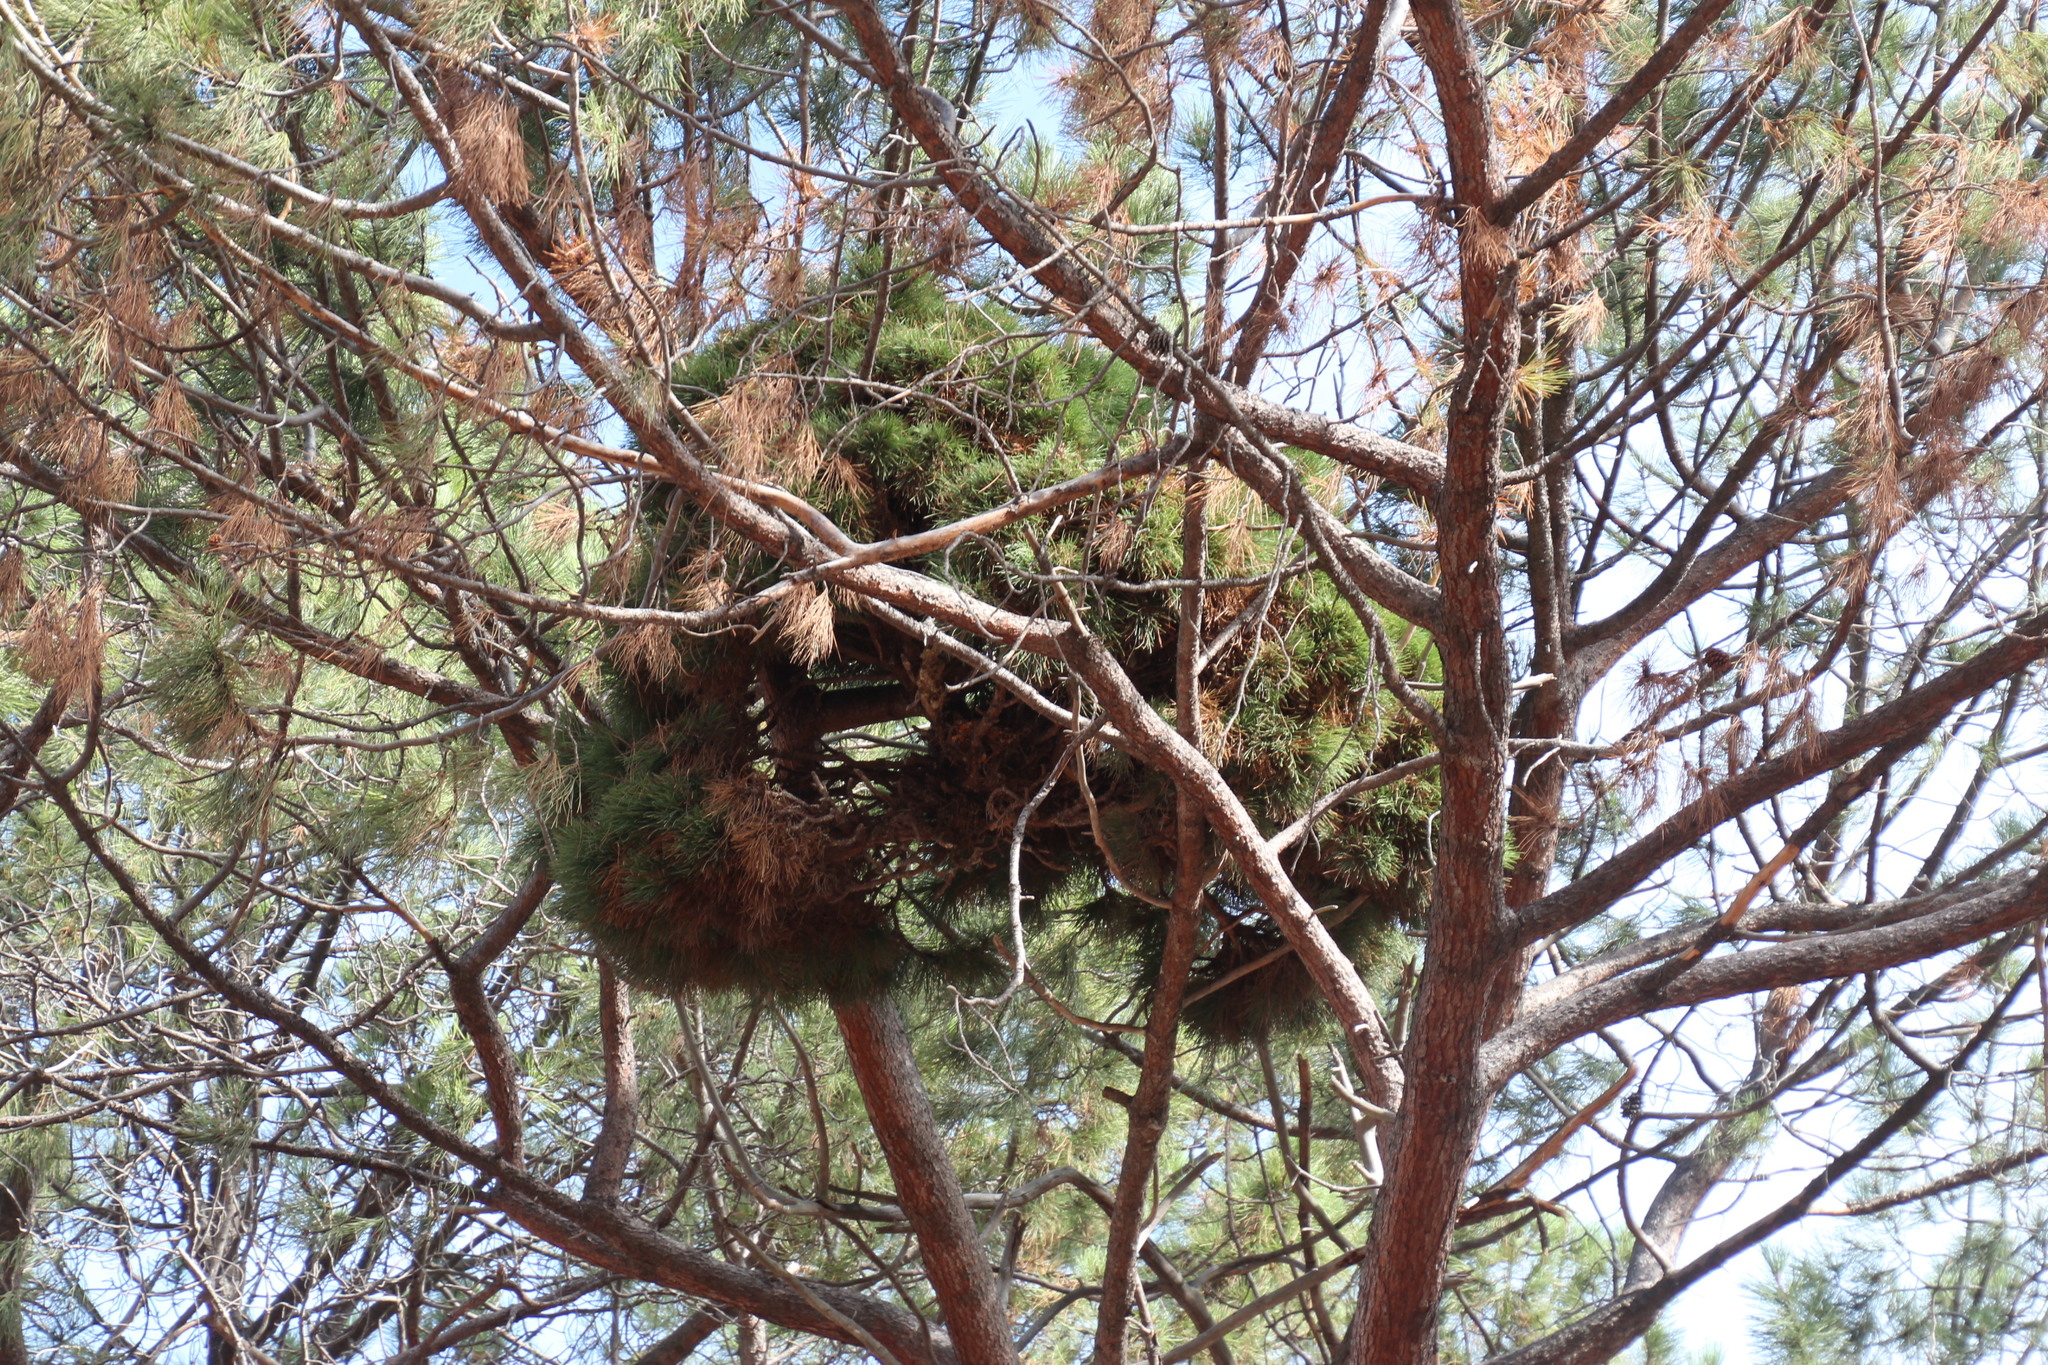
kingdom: Bacteria
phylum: Firmicutes
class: Bacilli
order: Acholeplasmatales
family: Acholeplasmataceae
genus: Phytoplasma
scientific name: Phytoplasma pini
